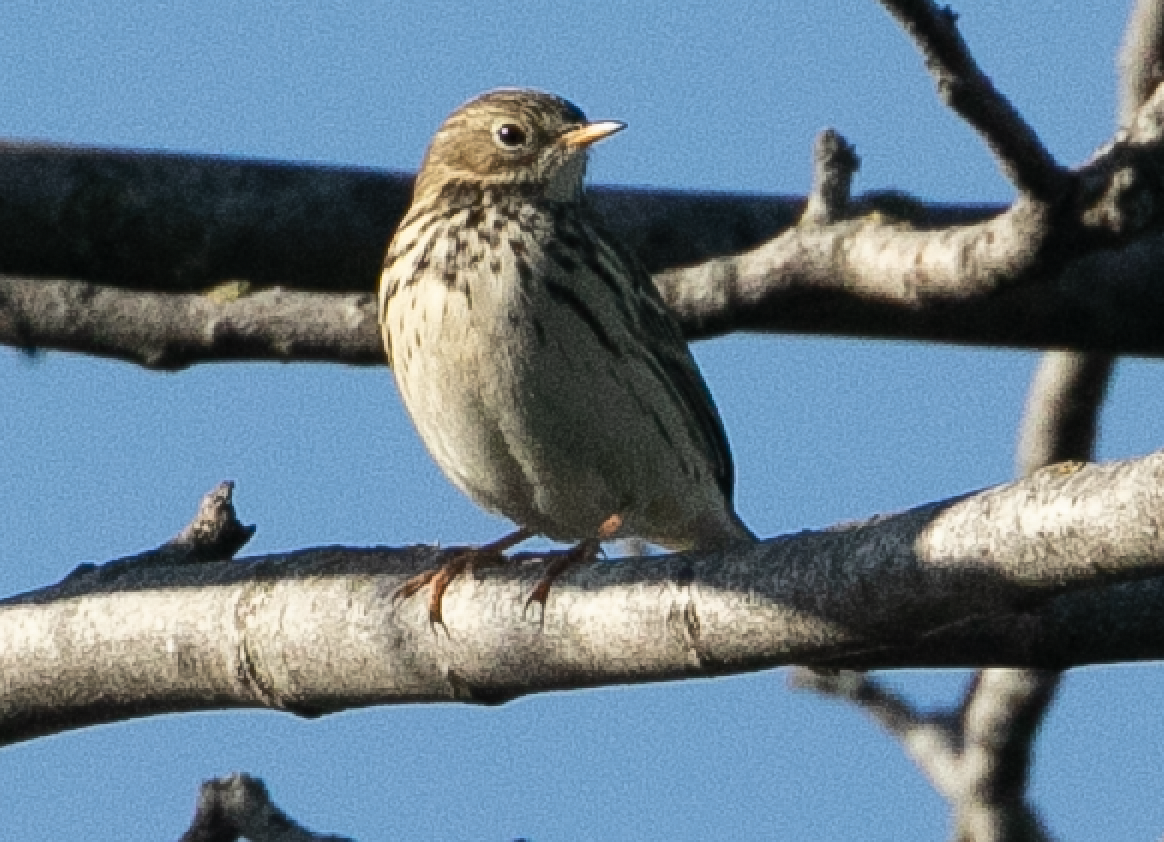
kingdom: Animalia
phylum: Chordata
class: Aves
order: Passeriformes
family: Motacillidae
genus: Anthus
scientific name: Anthus pratensis
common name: Meadow pipit
